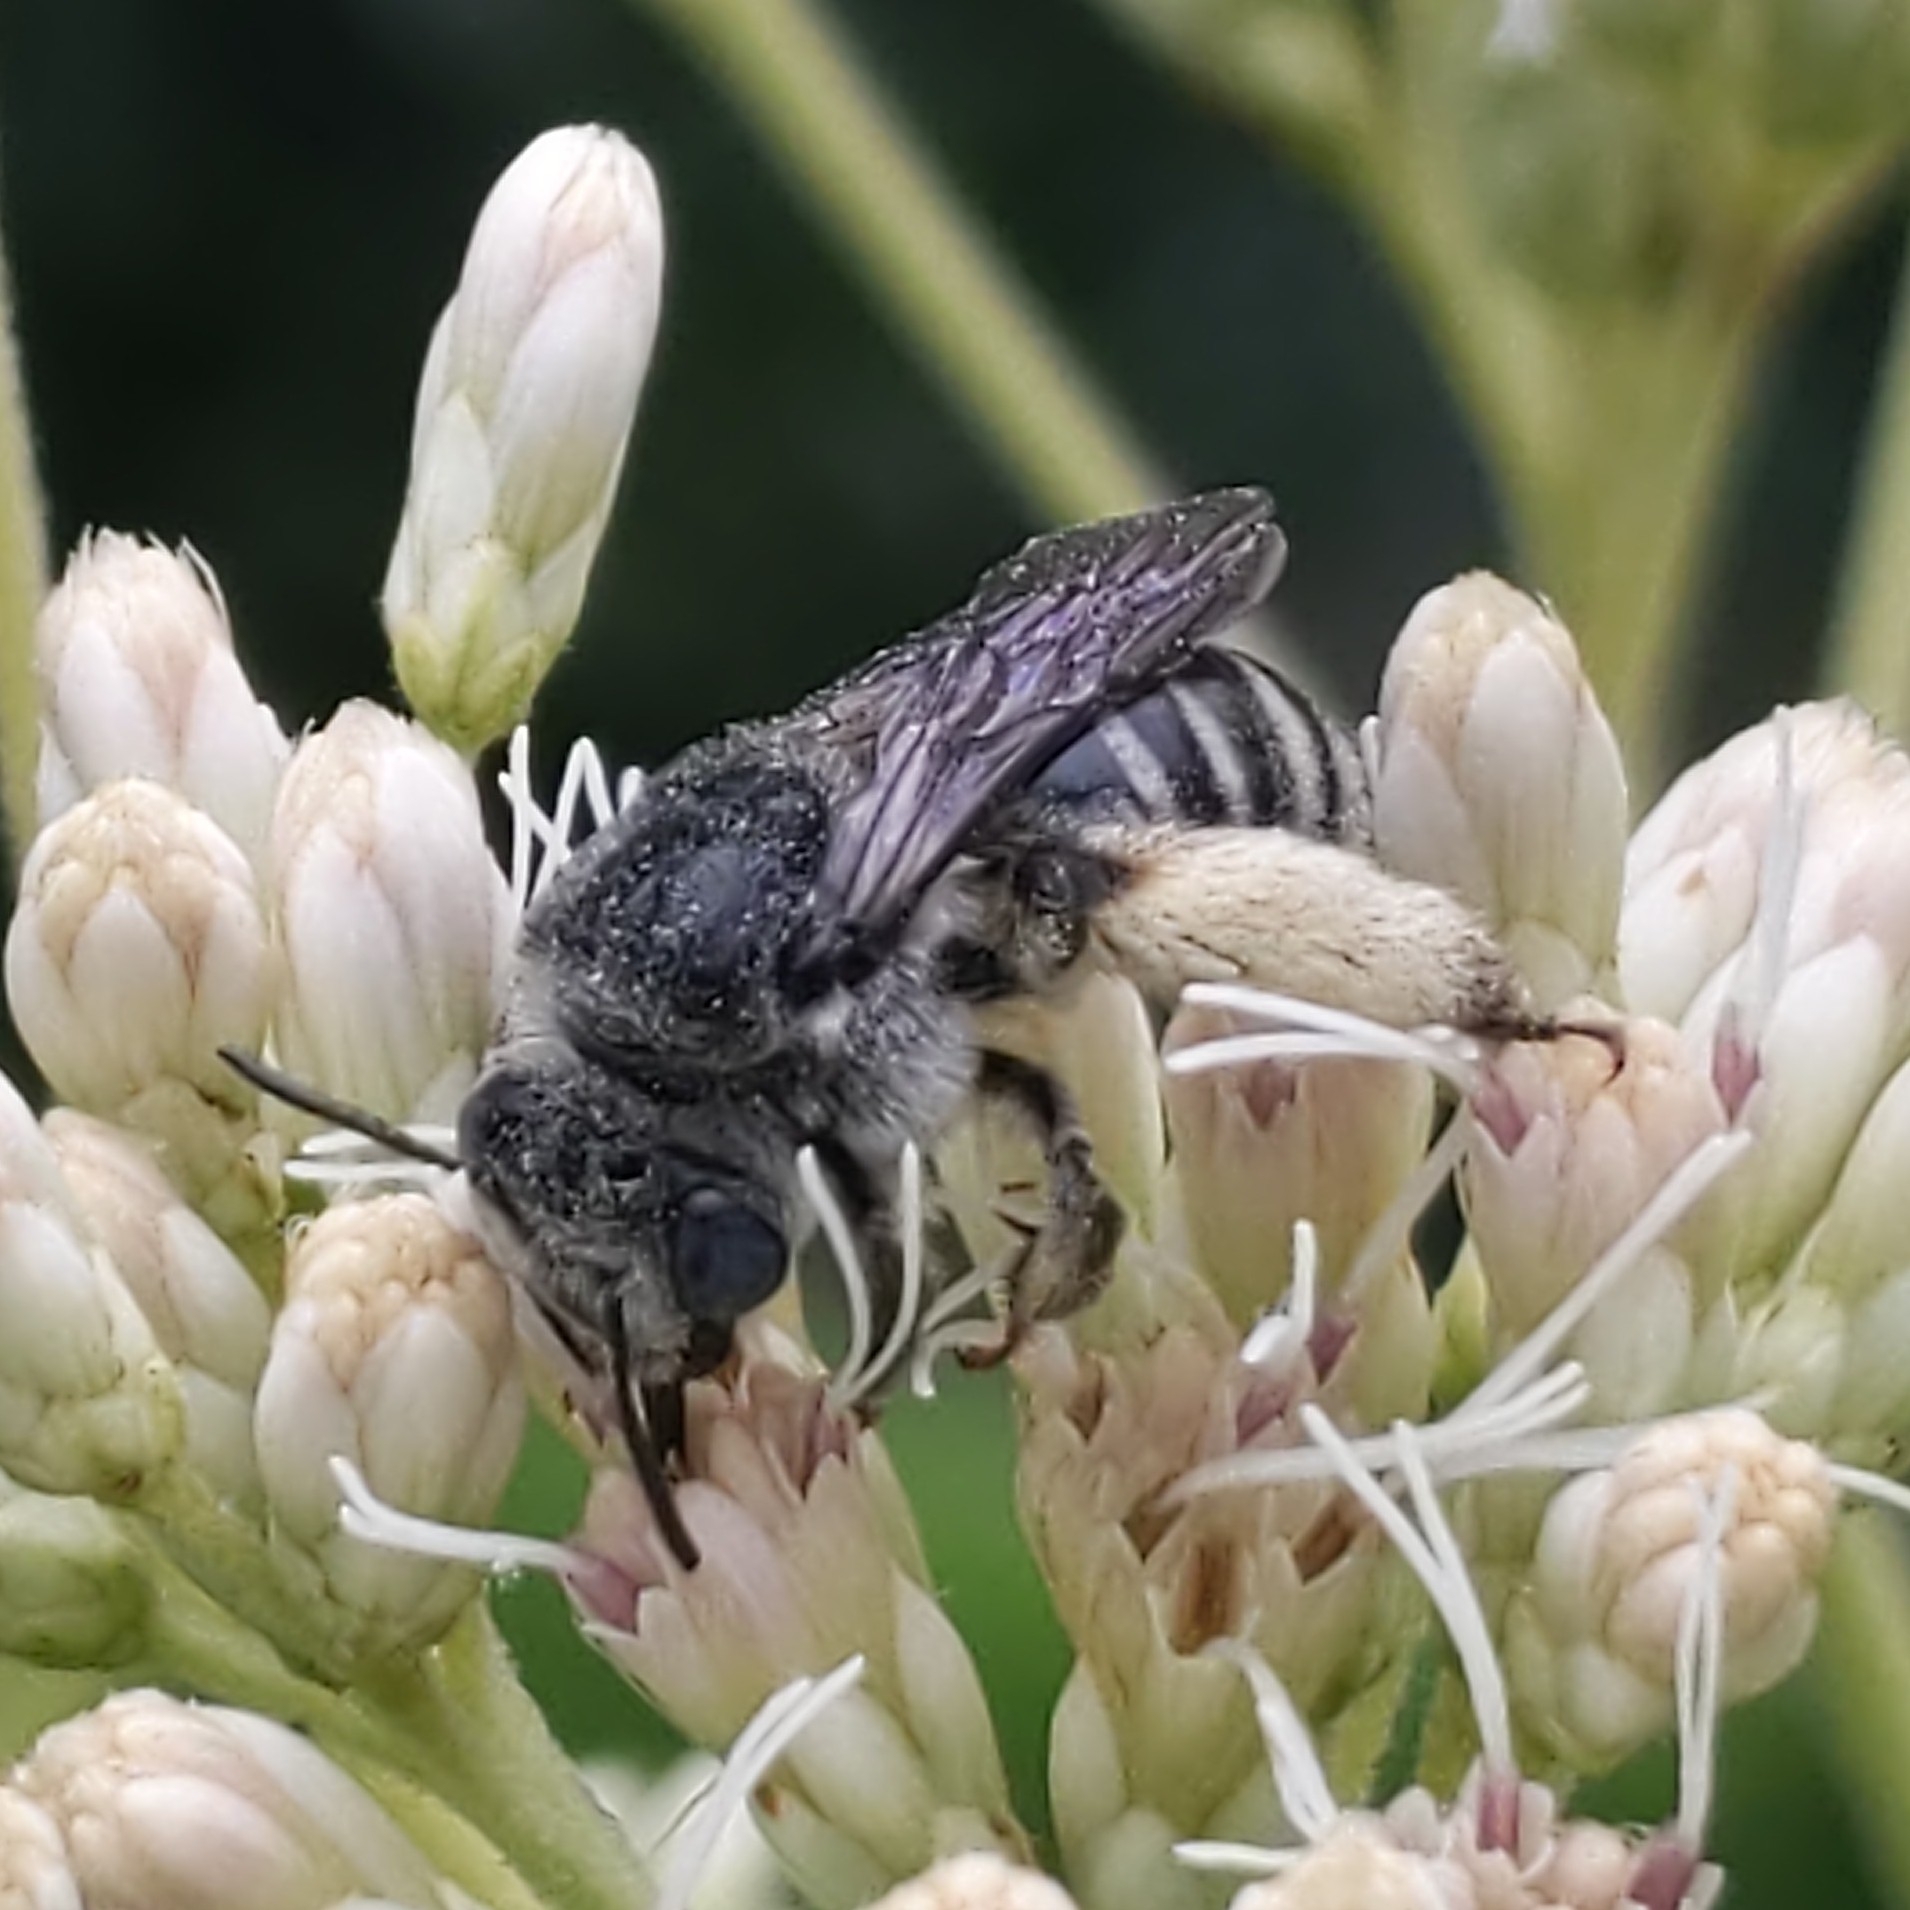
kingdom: Animalia
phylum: Arthropoda
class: Insecta
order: Hymenoptera
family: Apidae
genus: Melissodes
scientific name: Melissodes
